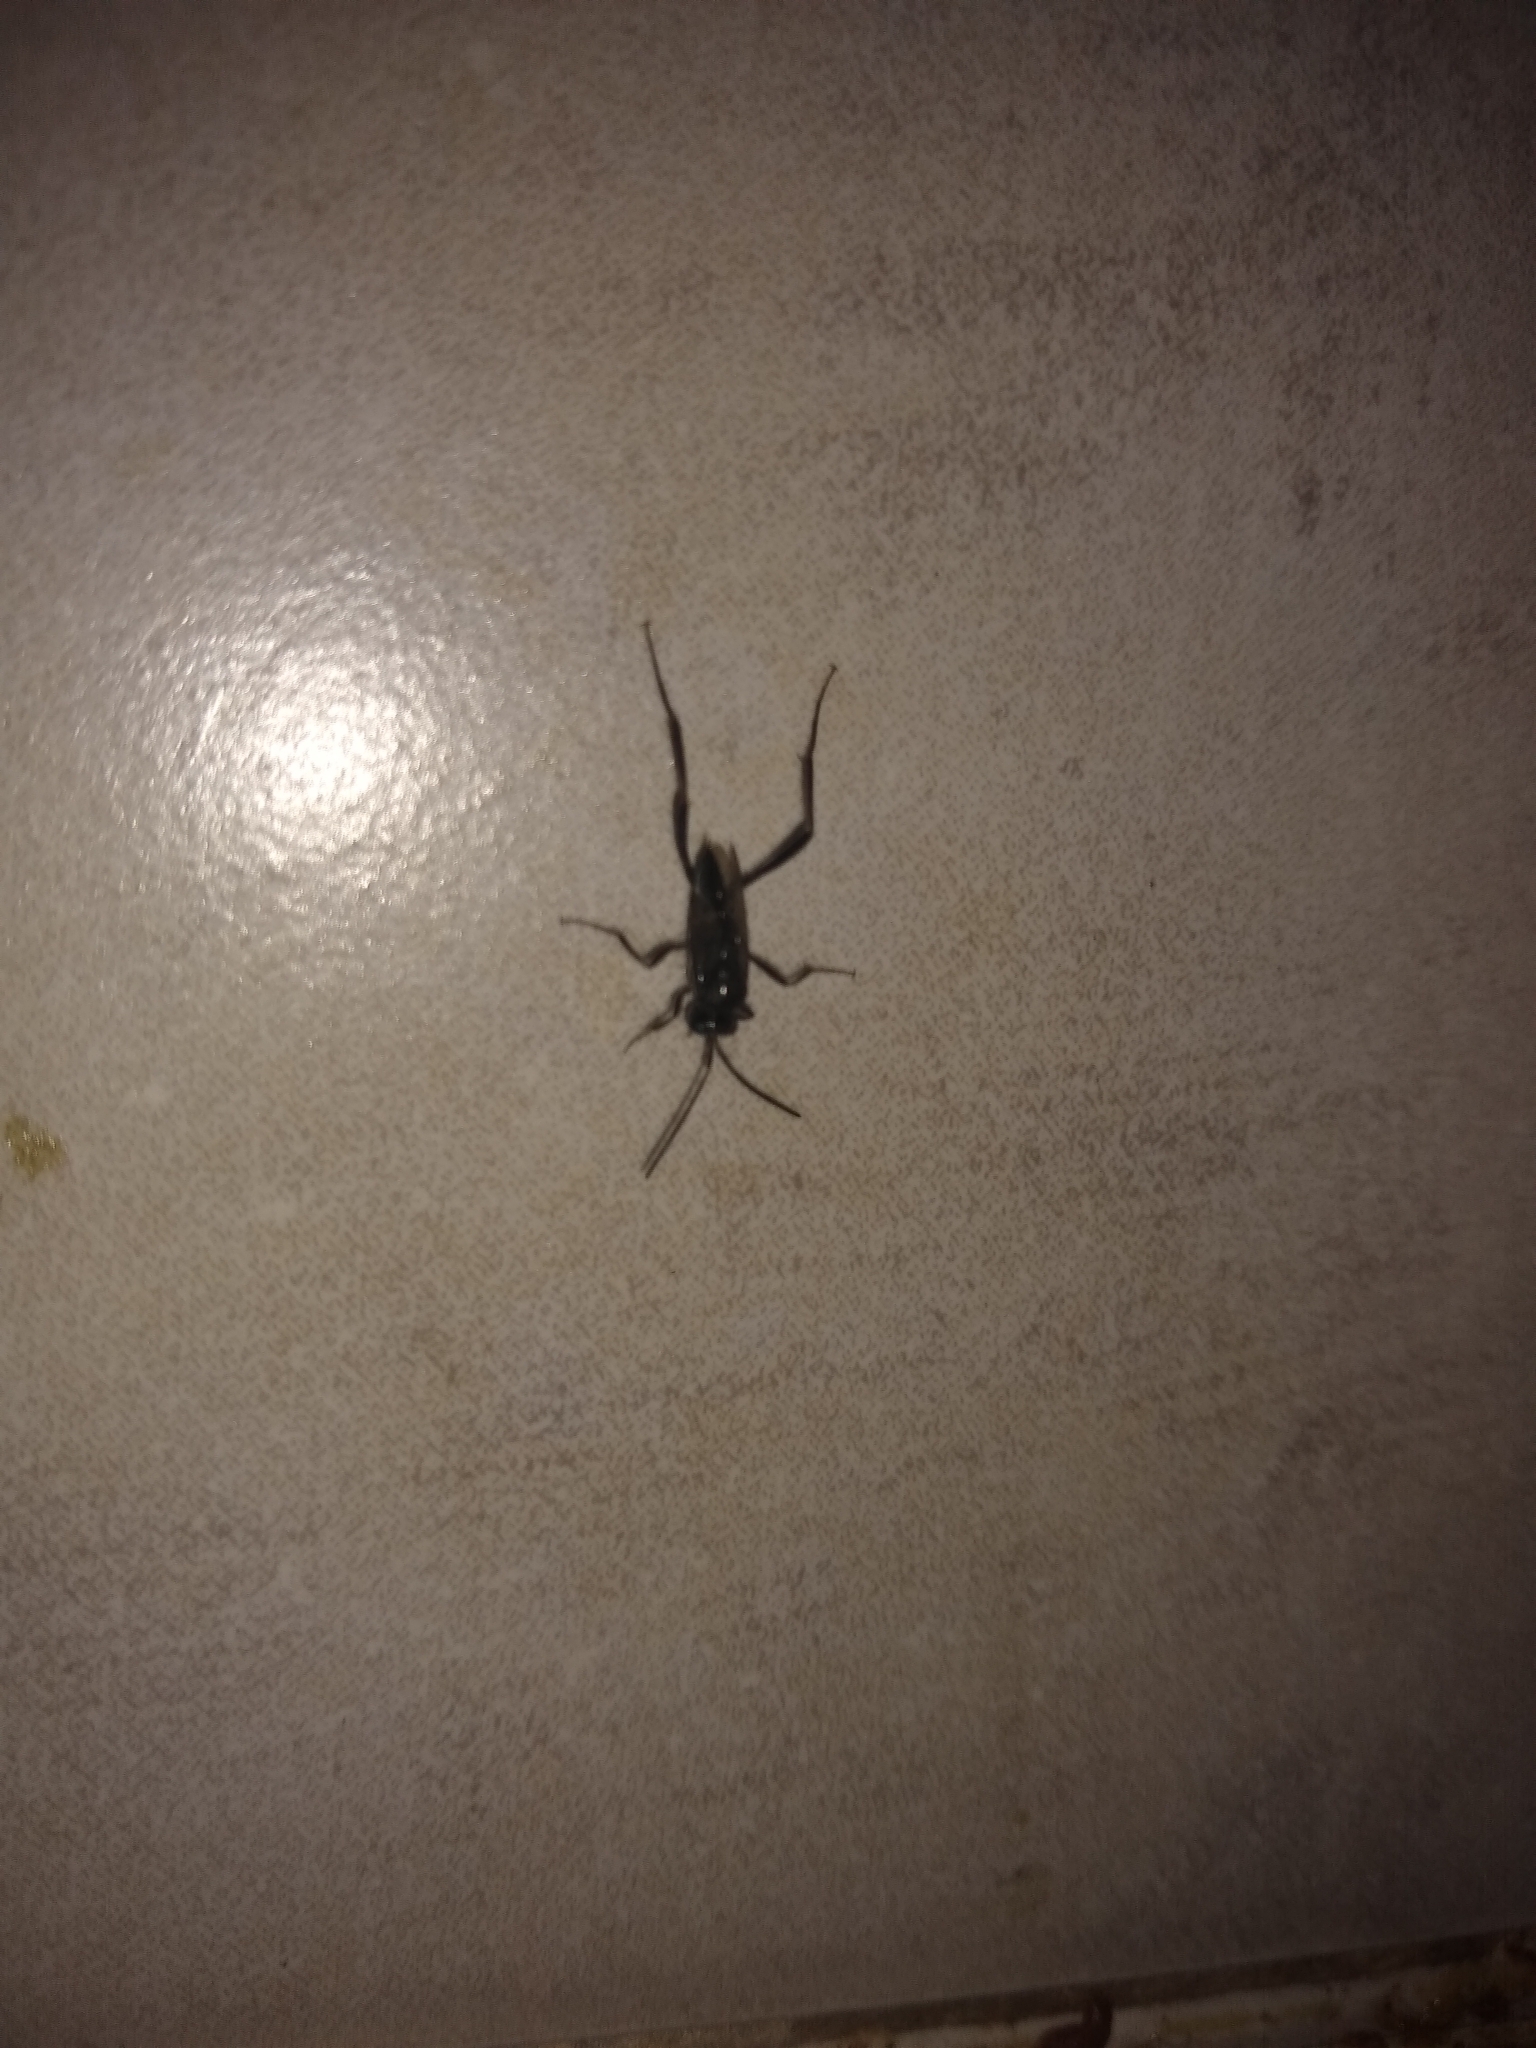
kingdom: Animalia
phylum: Arthropoda
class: Insecta
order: Hymenoptera
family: Evaniidae
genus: Evania
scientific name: Evania appendigaster
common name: Ensign wasp
